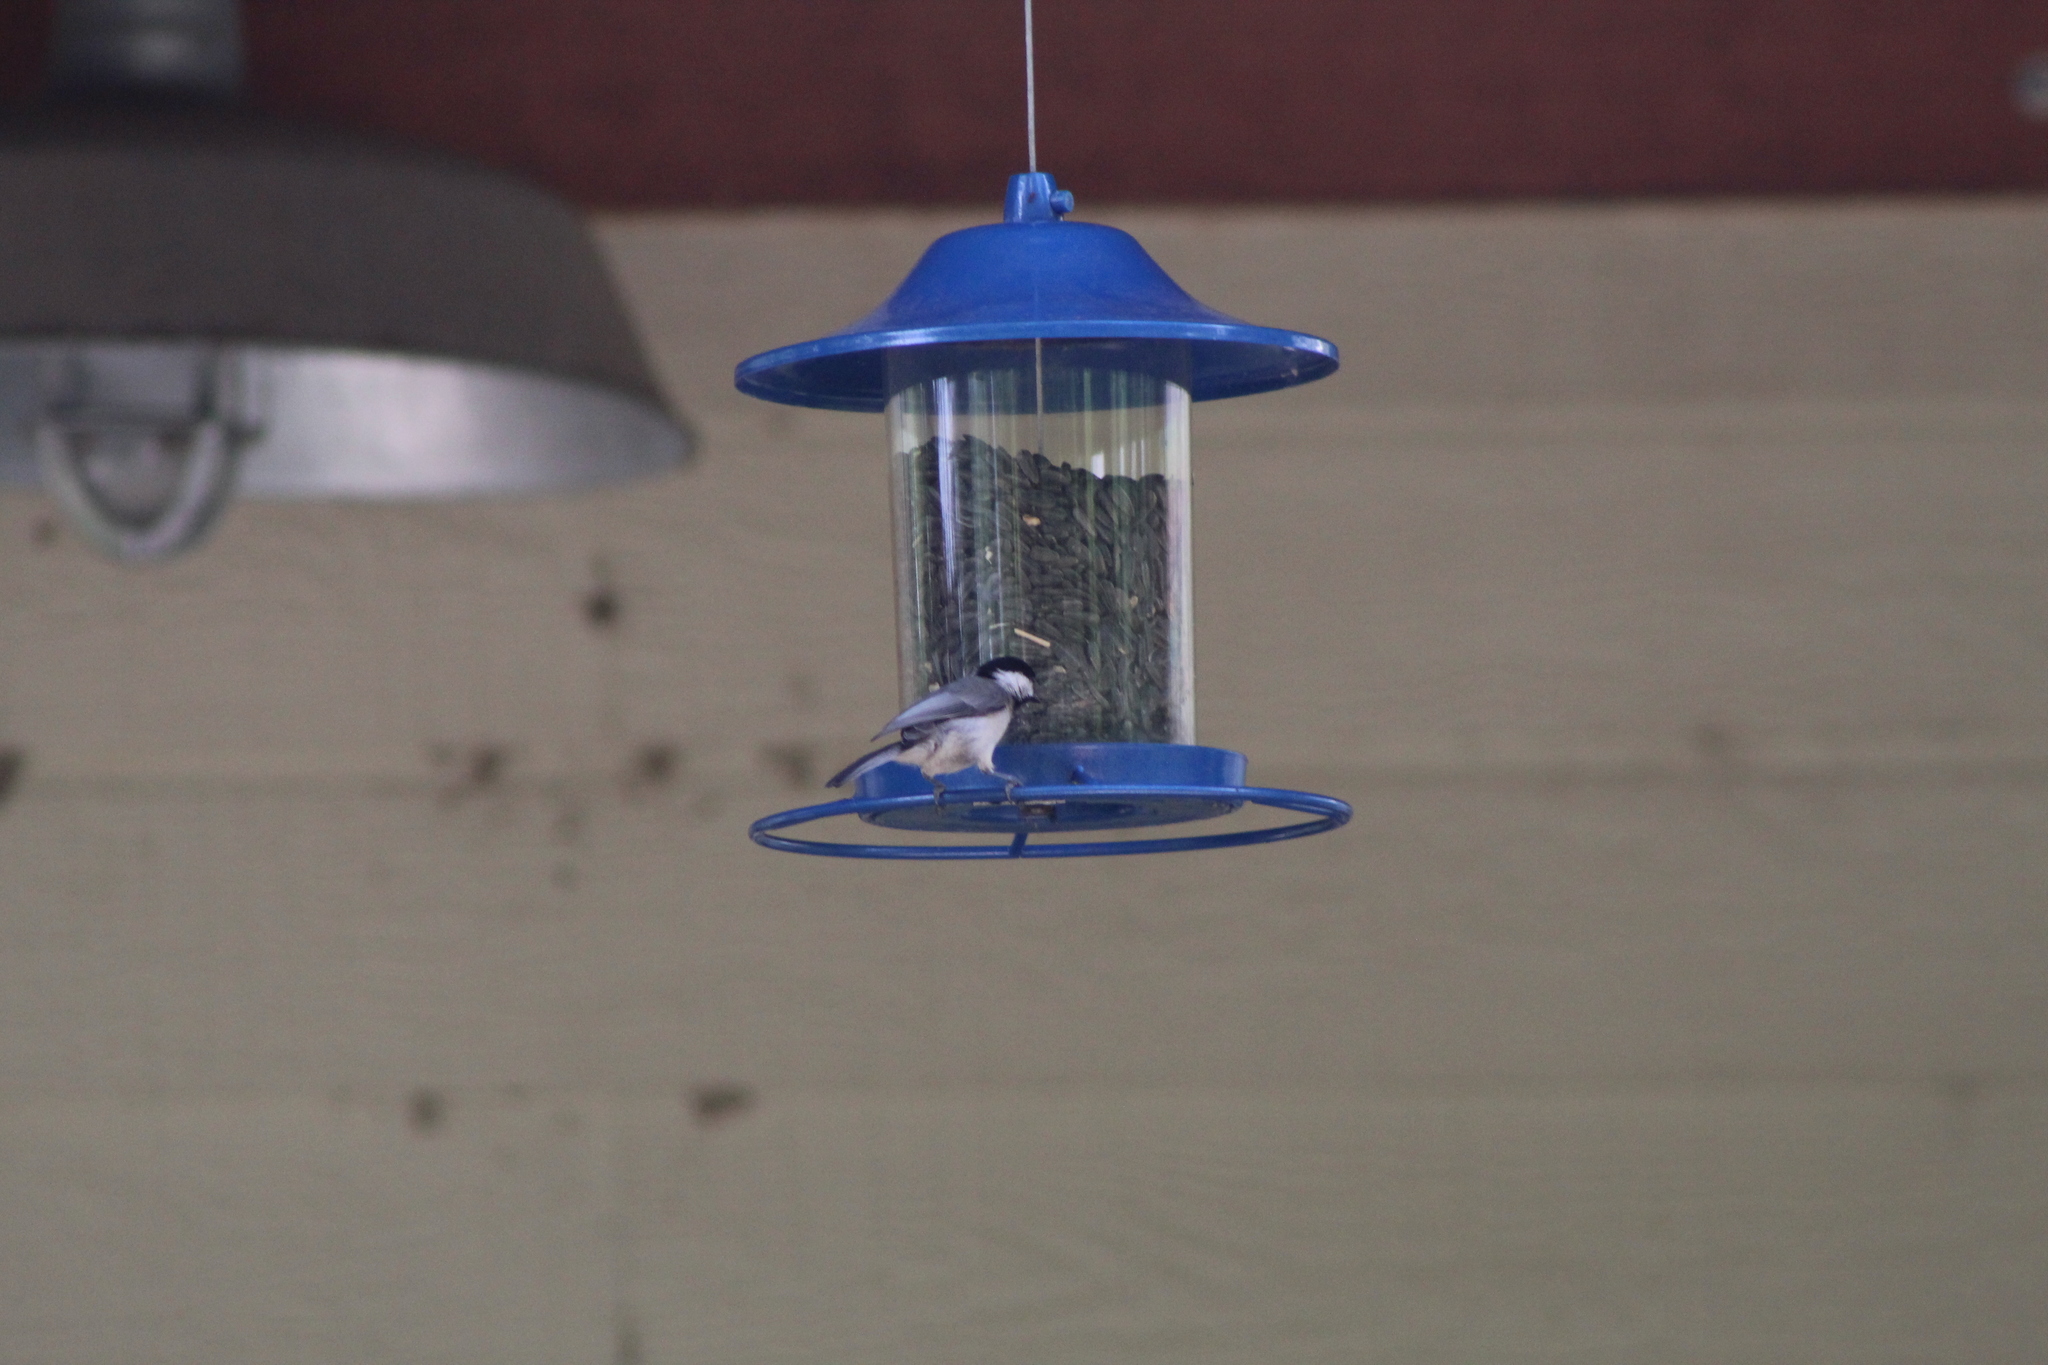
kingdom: Animalia
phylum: Chordata
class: Aves
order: Passeriformes
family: Paridae
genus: Poecile
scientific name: Poecile carolinensis
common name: Carolina chickadee
